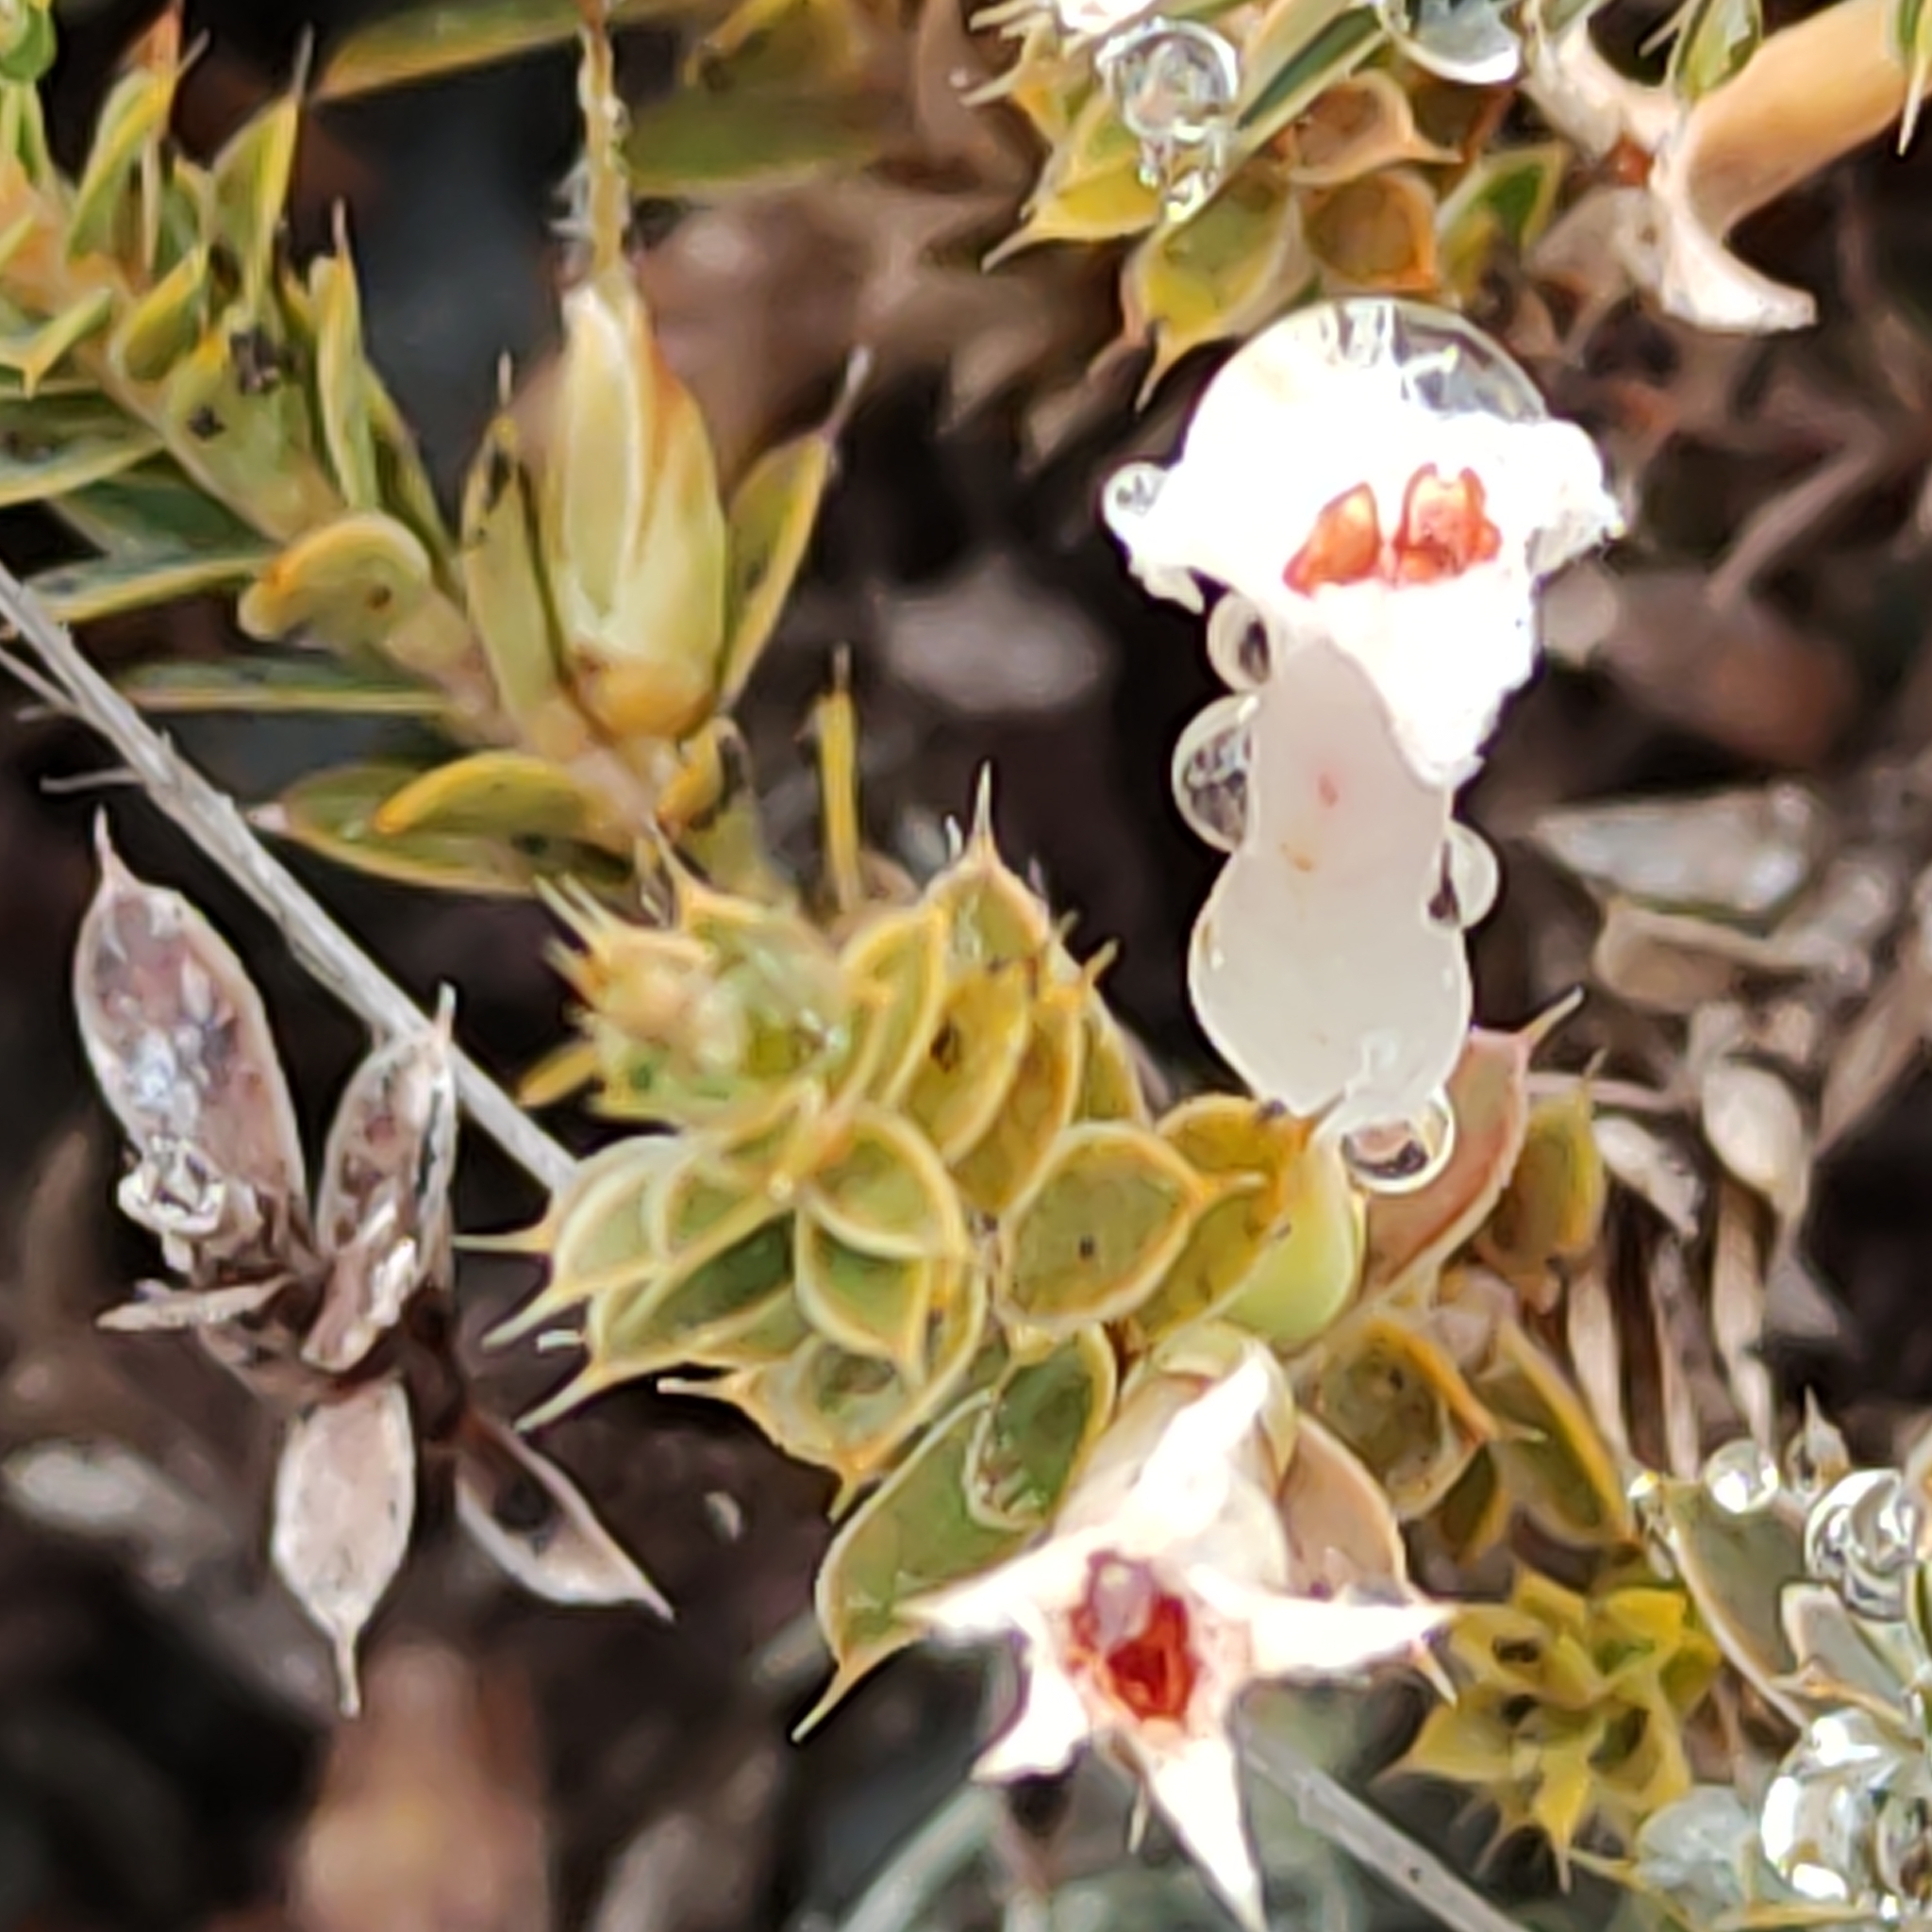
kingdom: Plantae
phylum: Tracheophyta
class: Magnoliopsida
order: Ericales
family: Ericaceae
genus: Styphelia
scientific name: Styphelia nesophila
